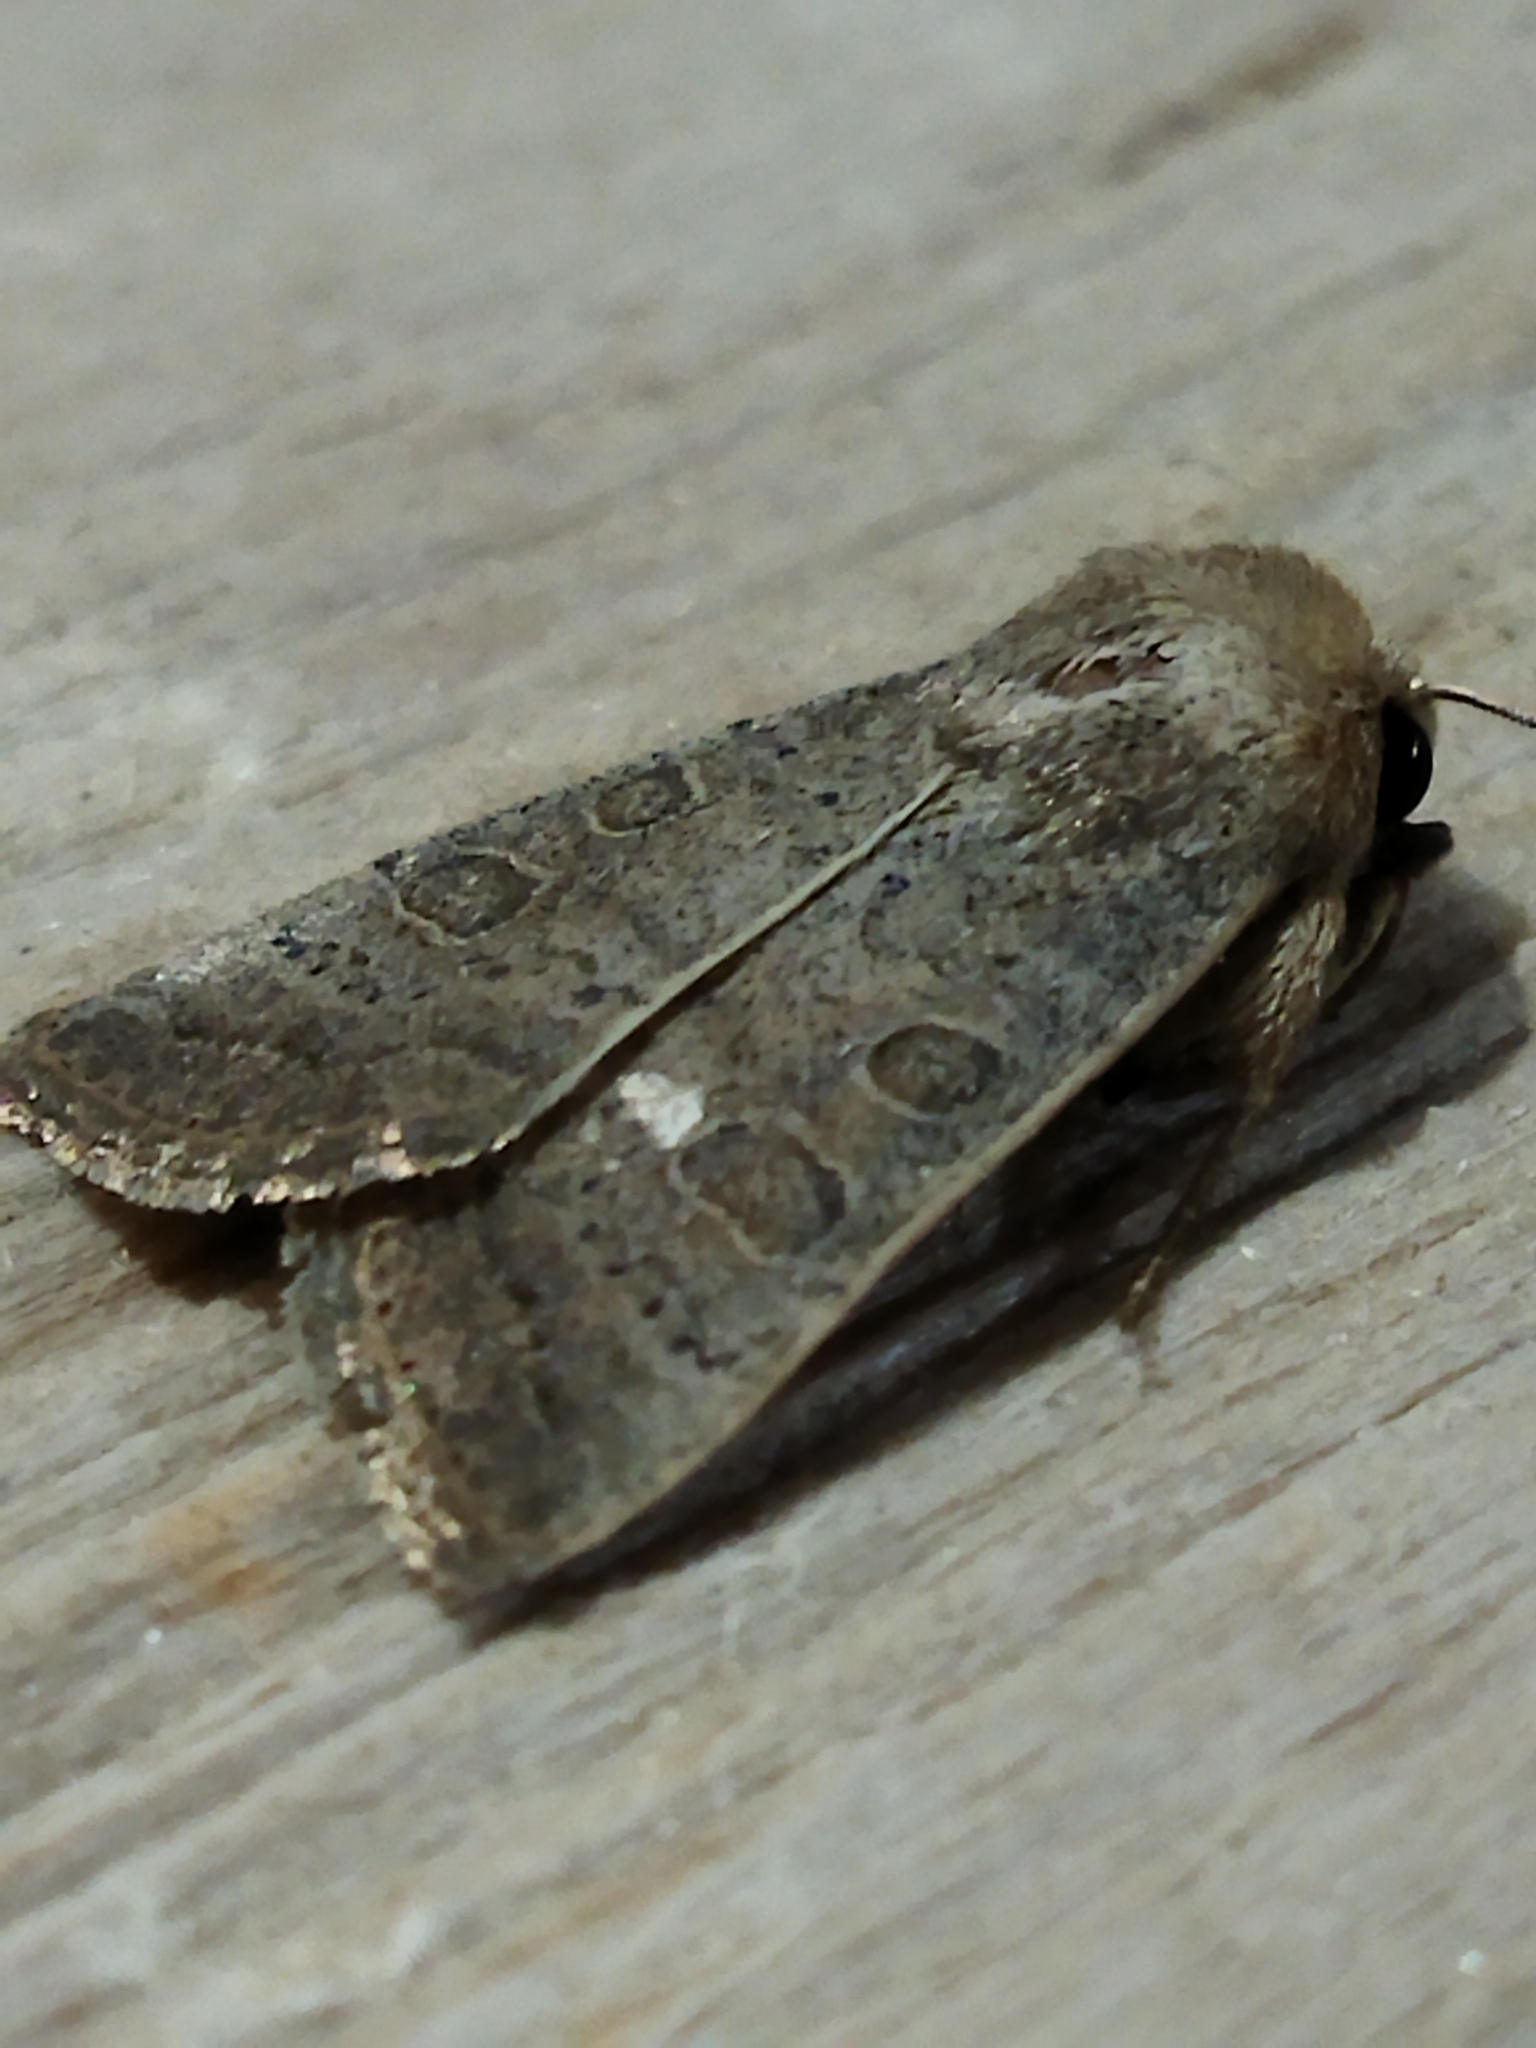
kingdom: Animalia
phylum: Arthropoda
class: Insecta
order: Lepidoptera
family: Noctuidae
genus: Hoplodrina
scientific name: Hoplodrina ambigua
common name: Vine's rustic
